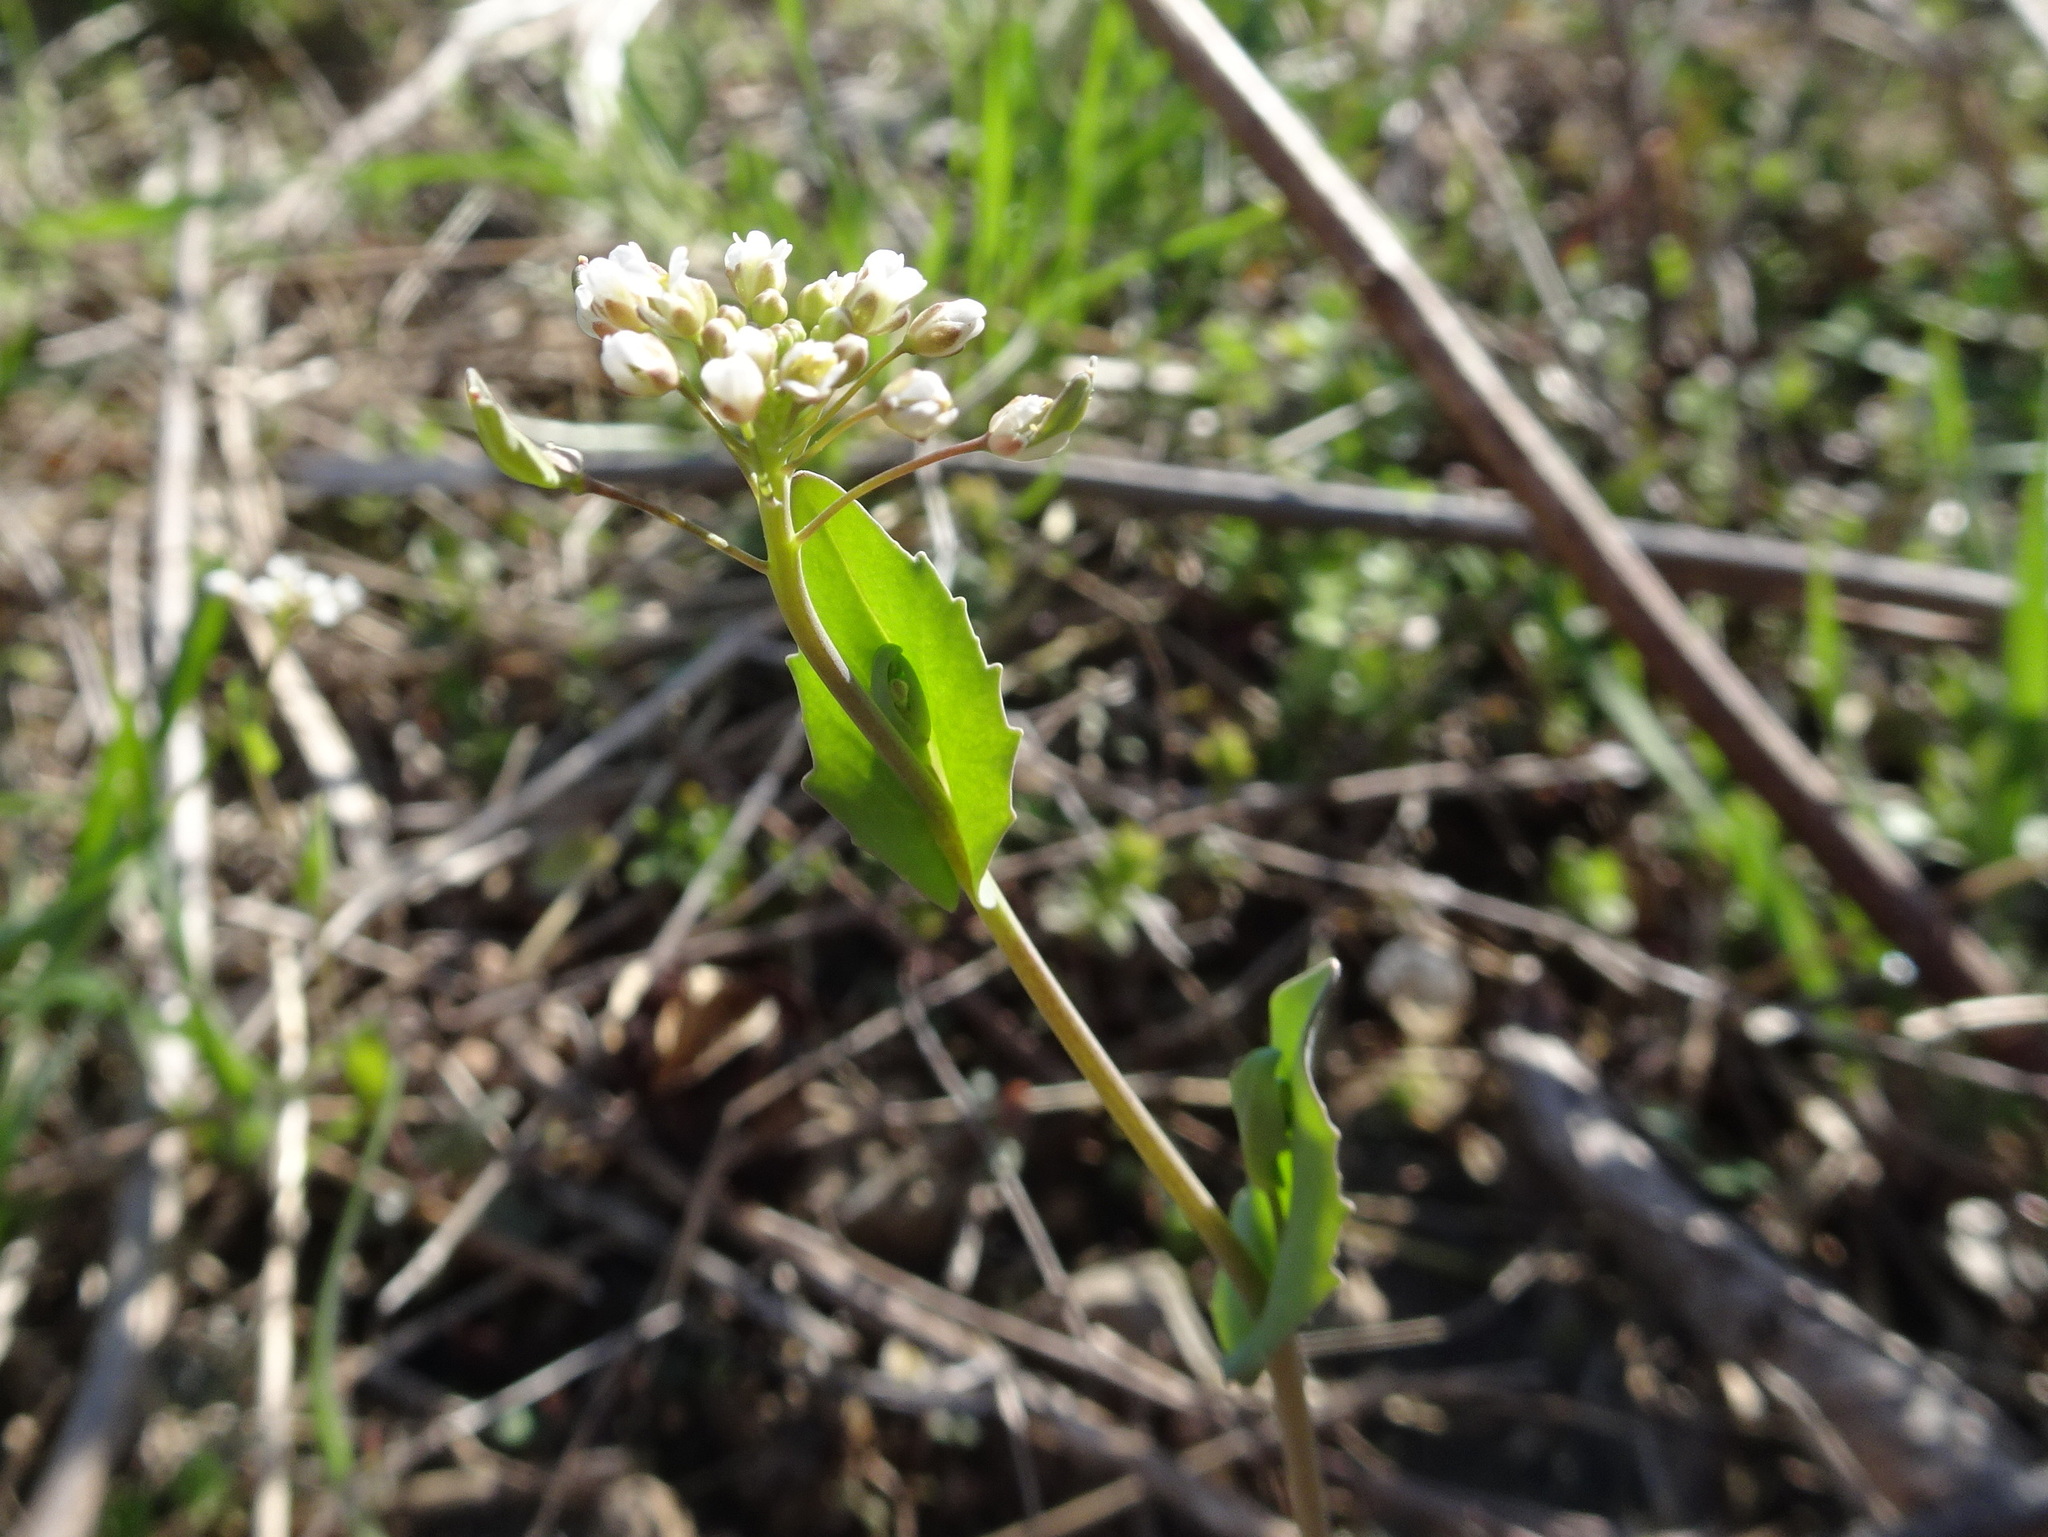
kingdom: Plantae
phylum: Tracheophyta
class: Magnoliopsida
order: Brassicales
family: Brassicaceae
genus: Noccaea
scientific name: Noccaea perfoliata
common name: Perfoliate pennycress
